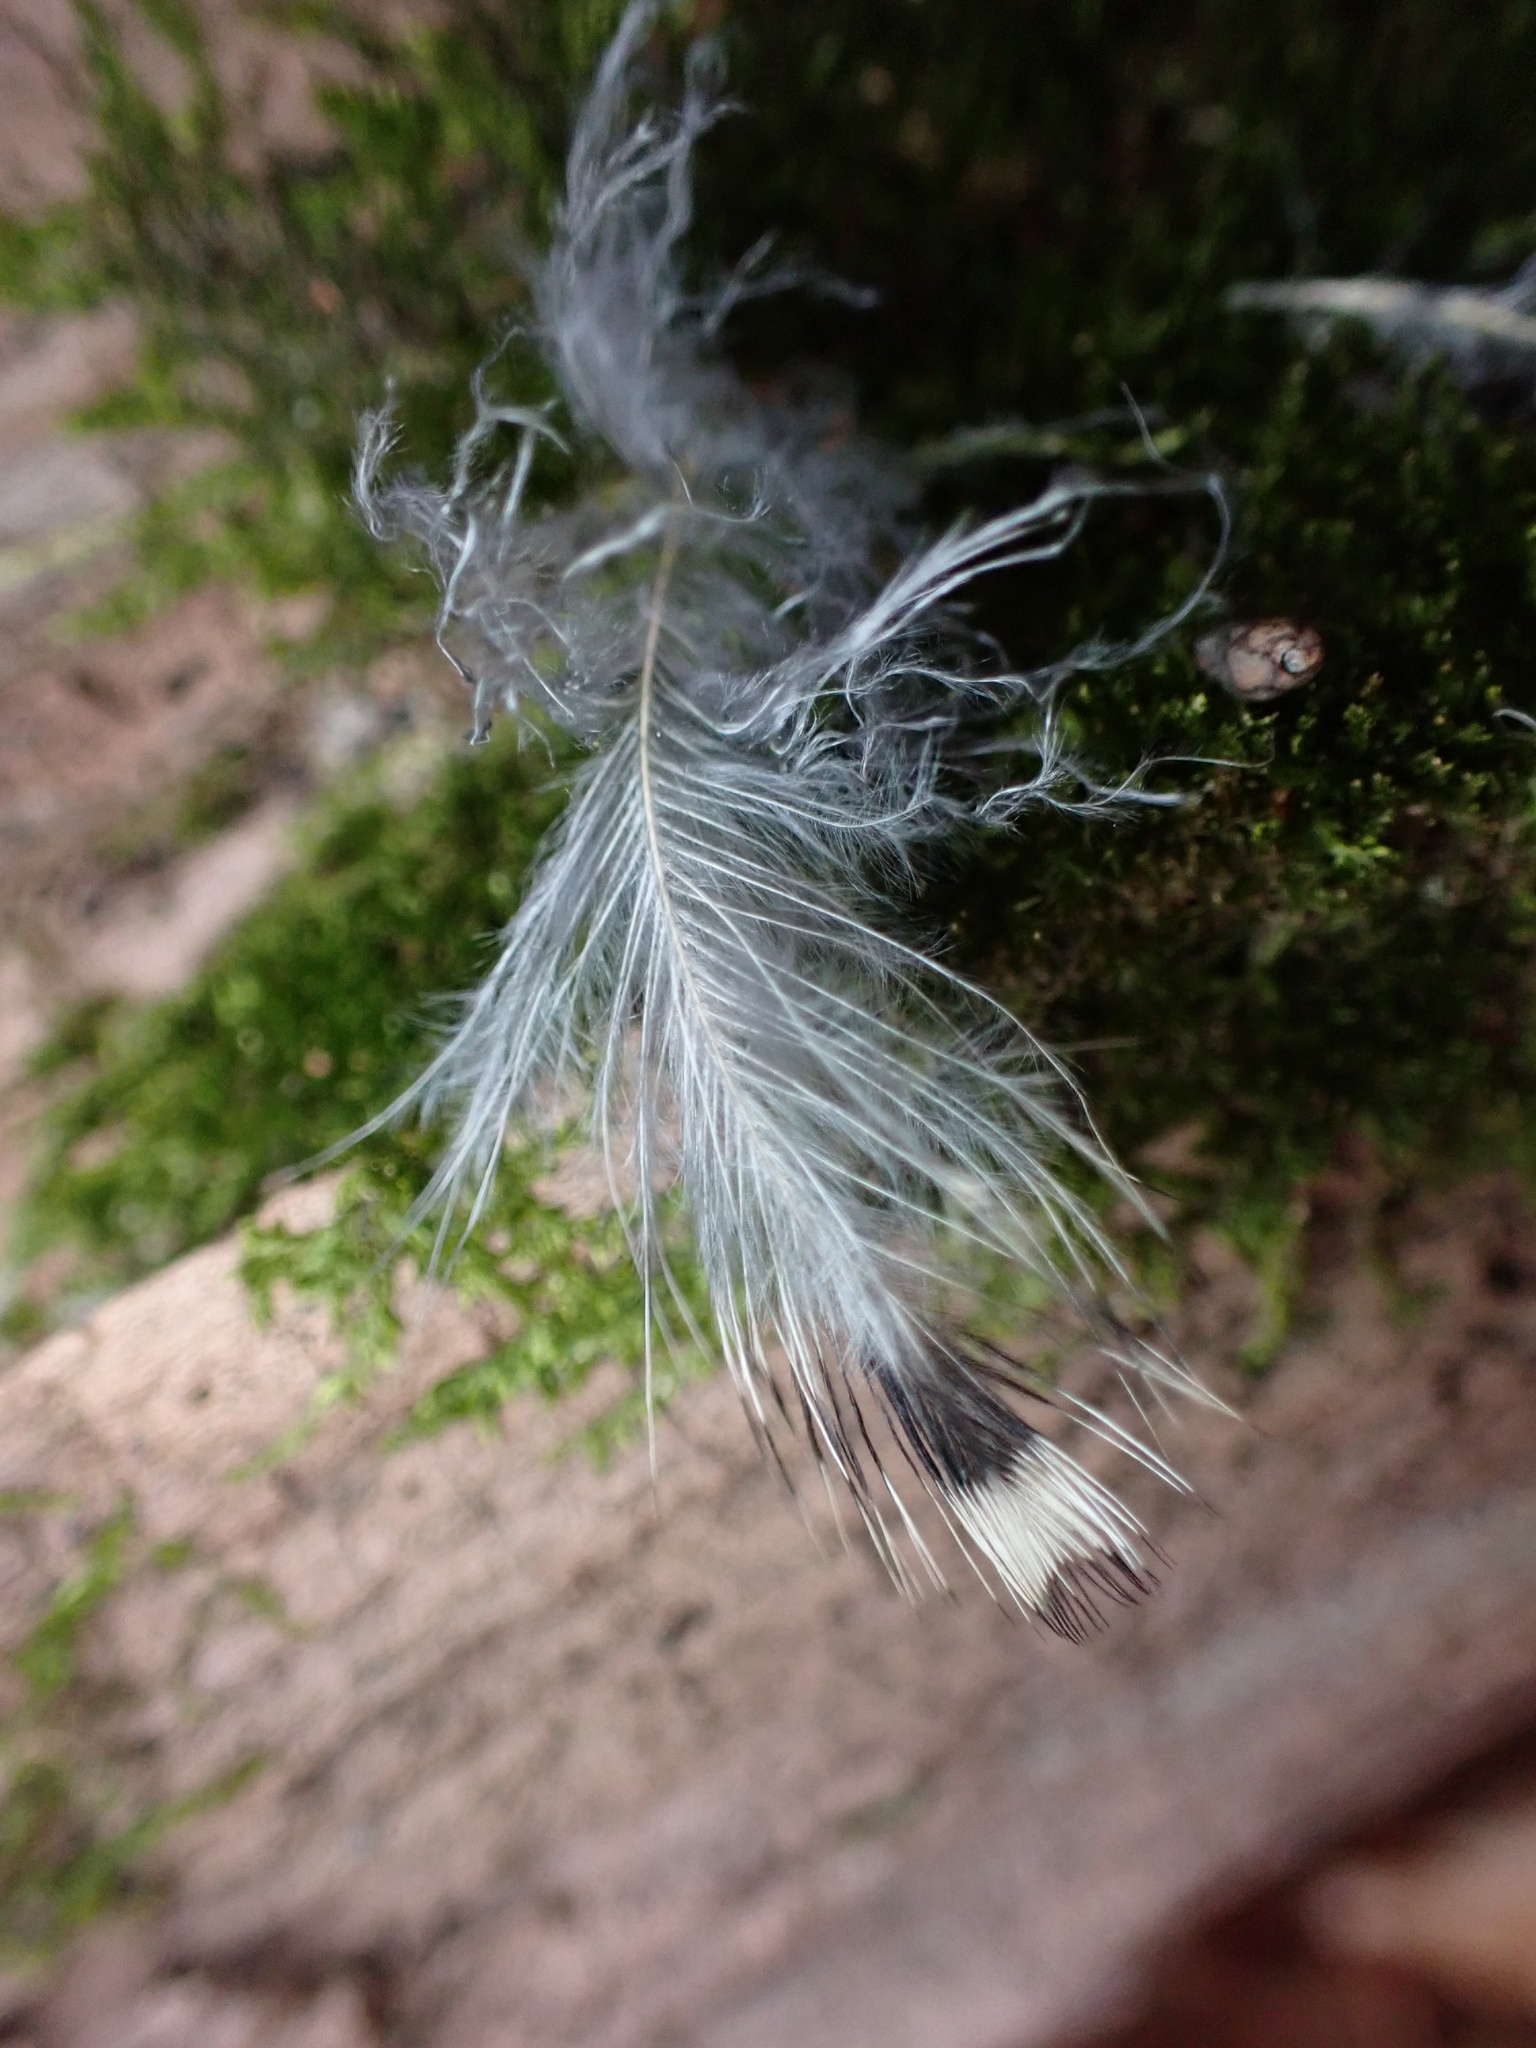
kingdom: Animalia
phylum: Chordata
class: Aves
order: Piciformes
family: Picidae
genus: Melanerpes
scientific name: Melanerpes carolinus
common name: Red-bellied woodpecker
